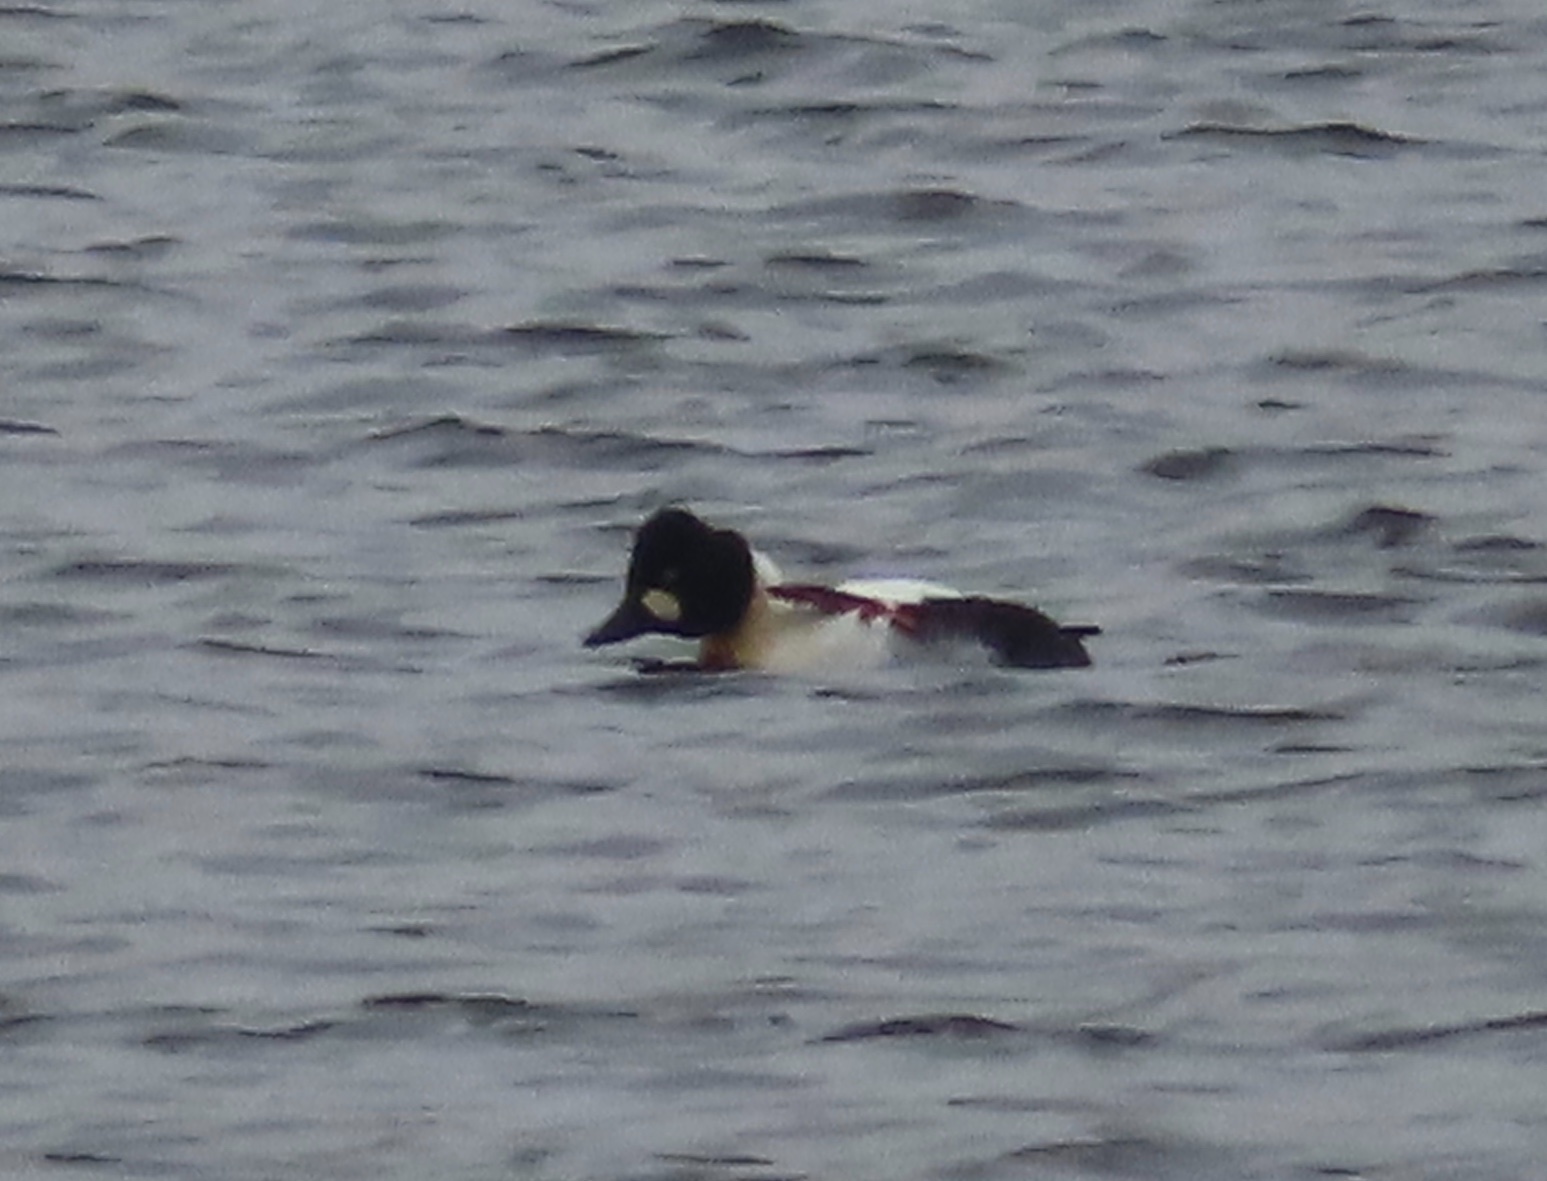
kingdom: Animalia
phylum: Chordata
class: Aves
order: Anseriformes
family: Anatidae
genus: Bucephala
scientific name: Bucephala clangula
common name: Common goldeneye
